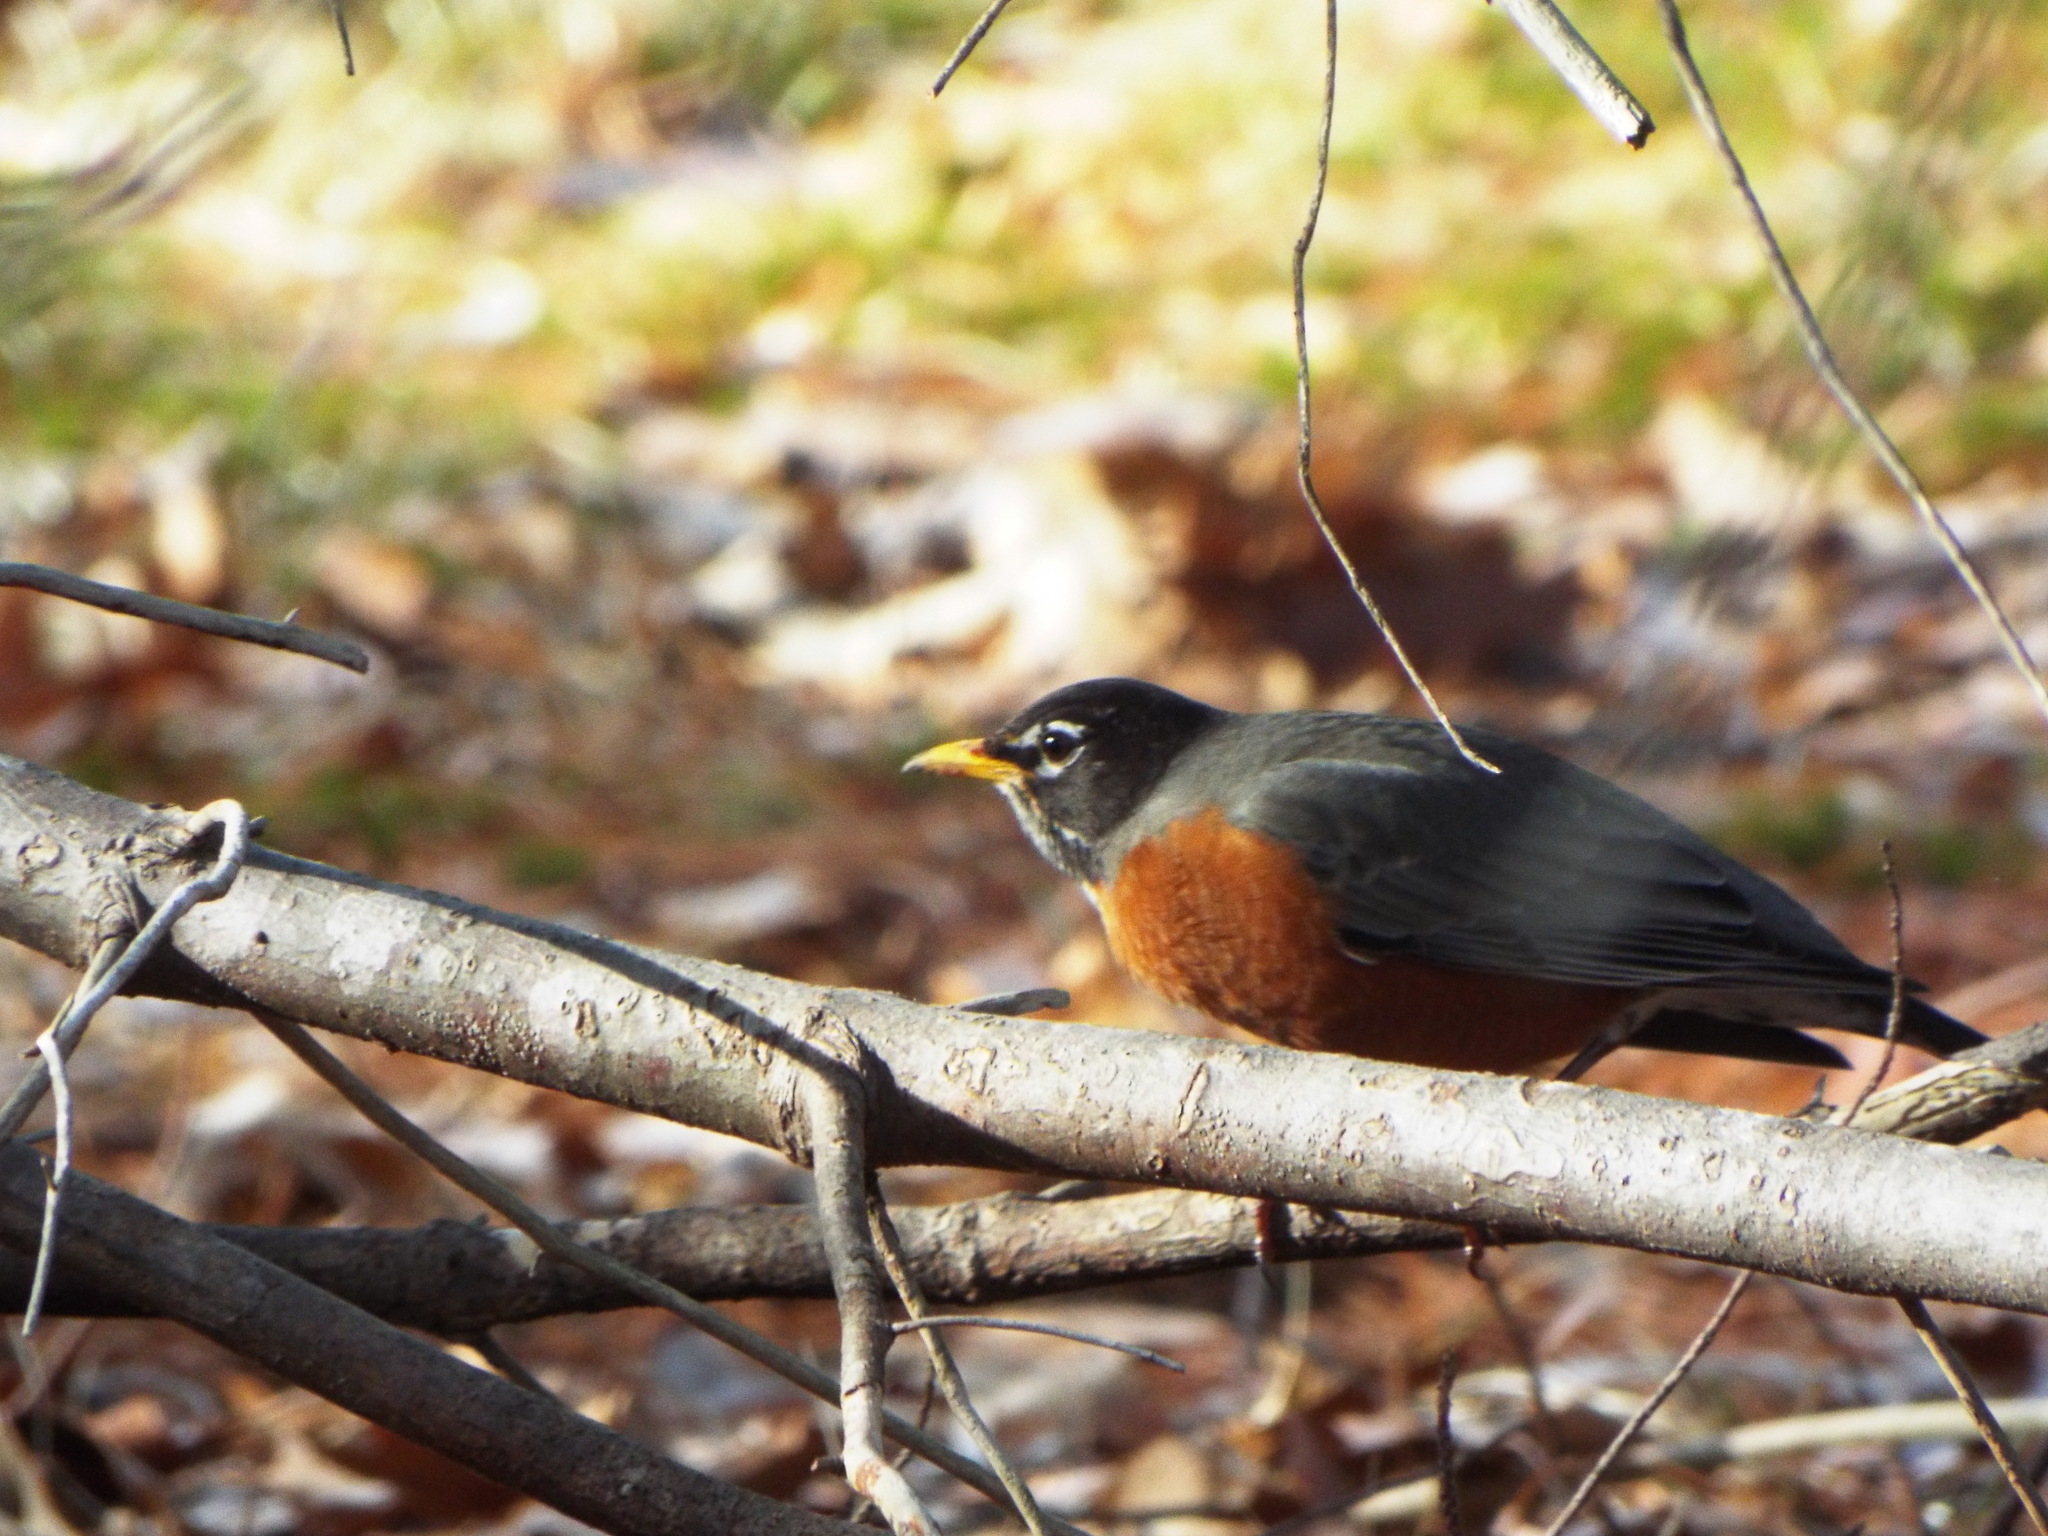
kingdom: Animalia
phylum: Chordata
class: Aves
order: Passeriformes
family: Turdidae
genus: Turdus
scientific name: Turdus migratorius
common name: American robin
